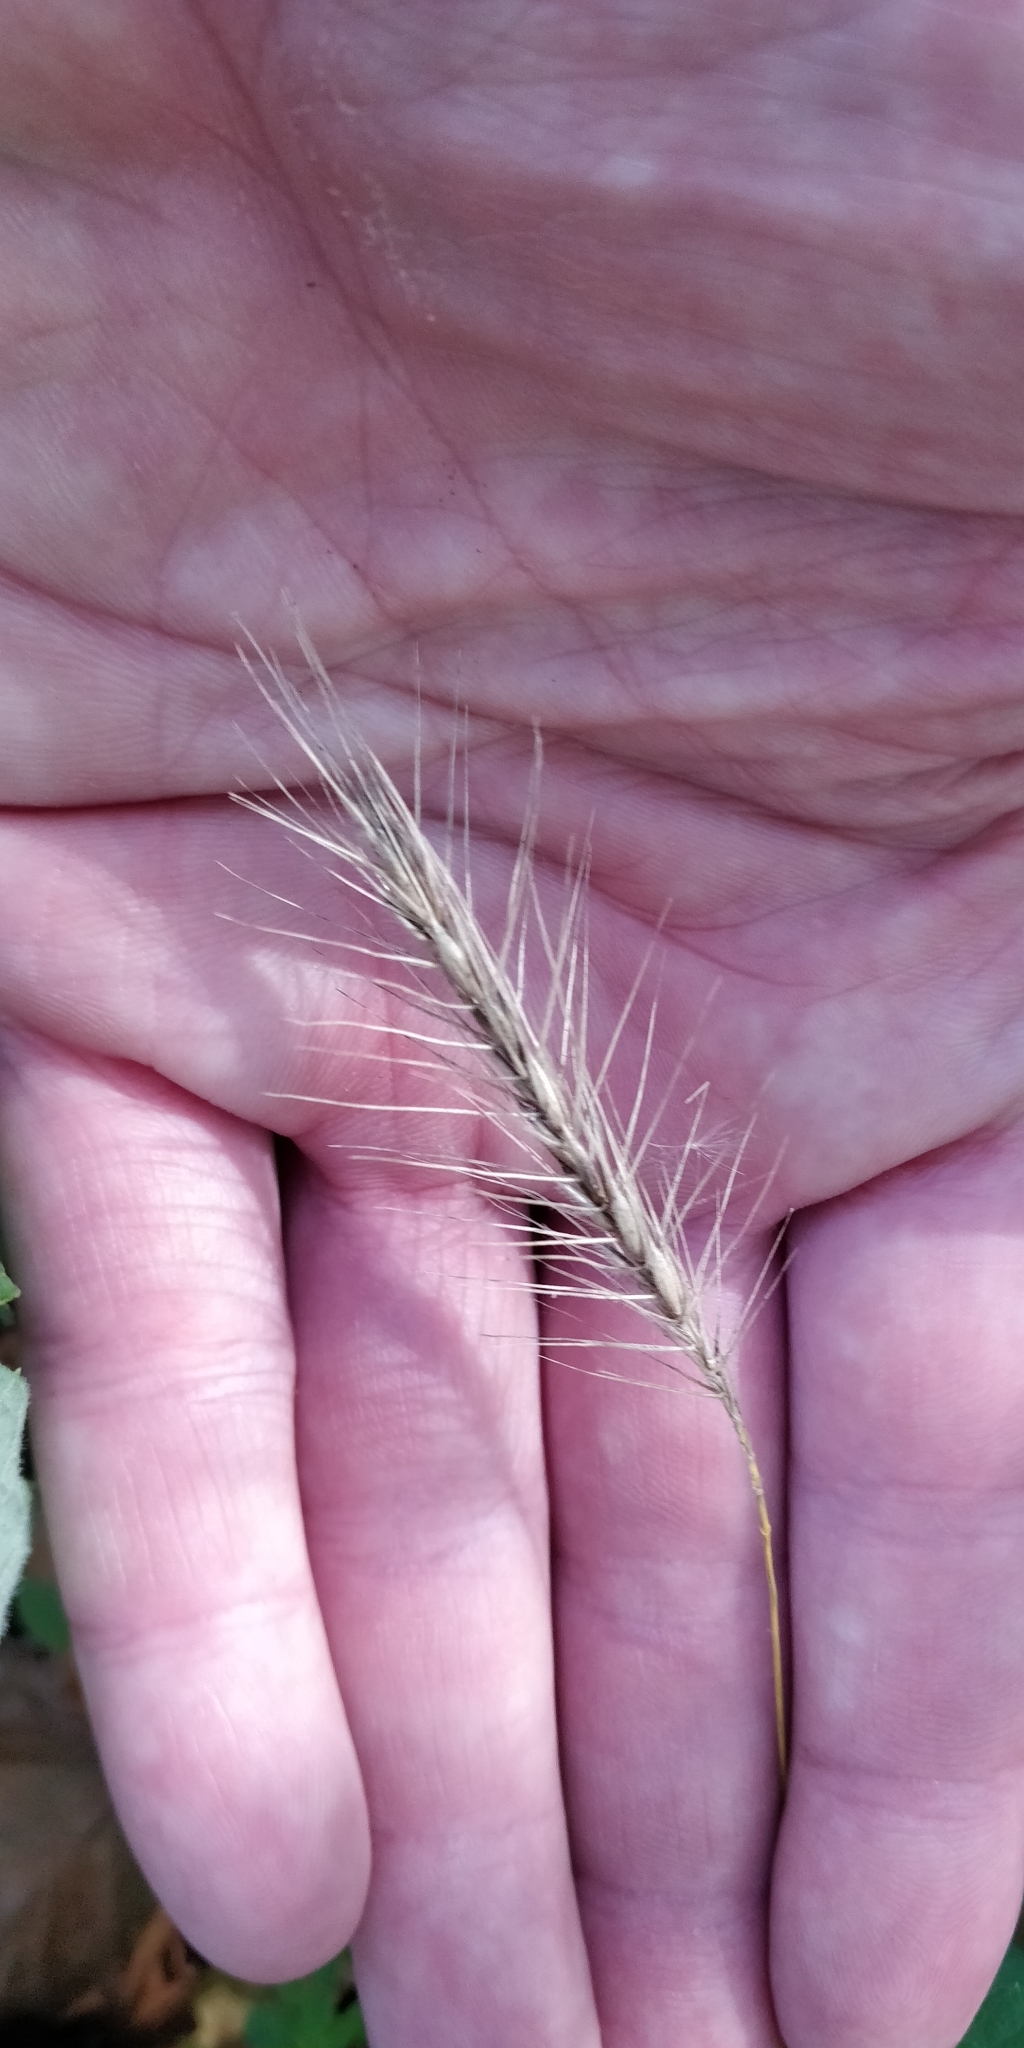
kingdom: Plantae
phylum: Tracheophyta
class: Liliopsida
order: Poales
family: Poaceae
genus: Elymus
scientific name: Elymus villosus
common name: Downy wild rye
